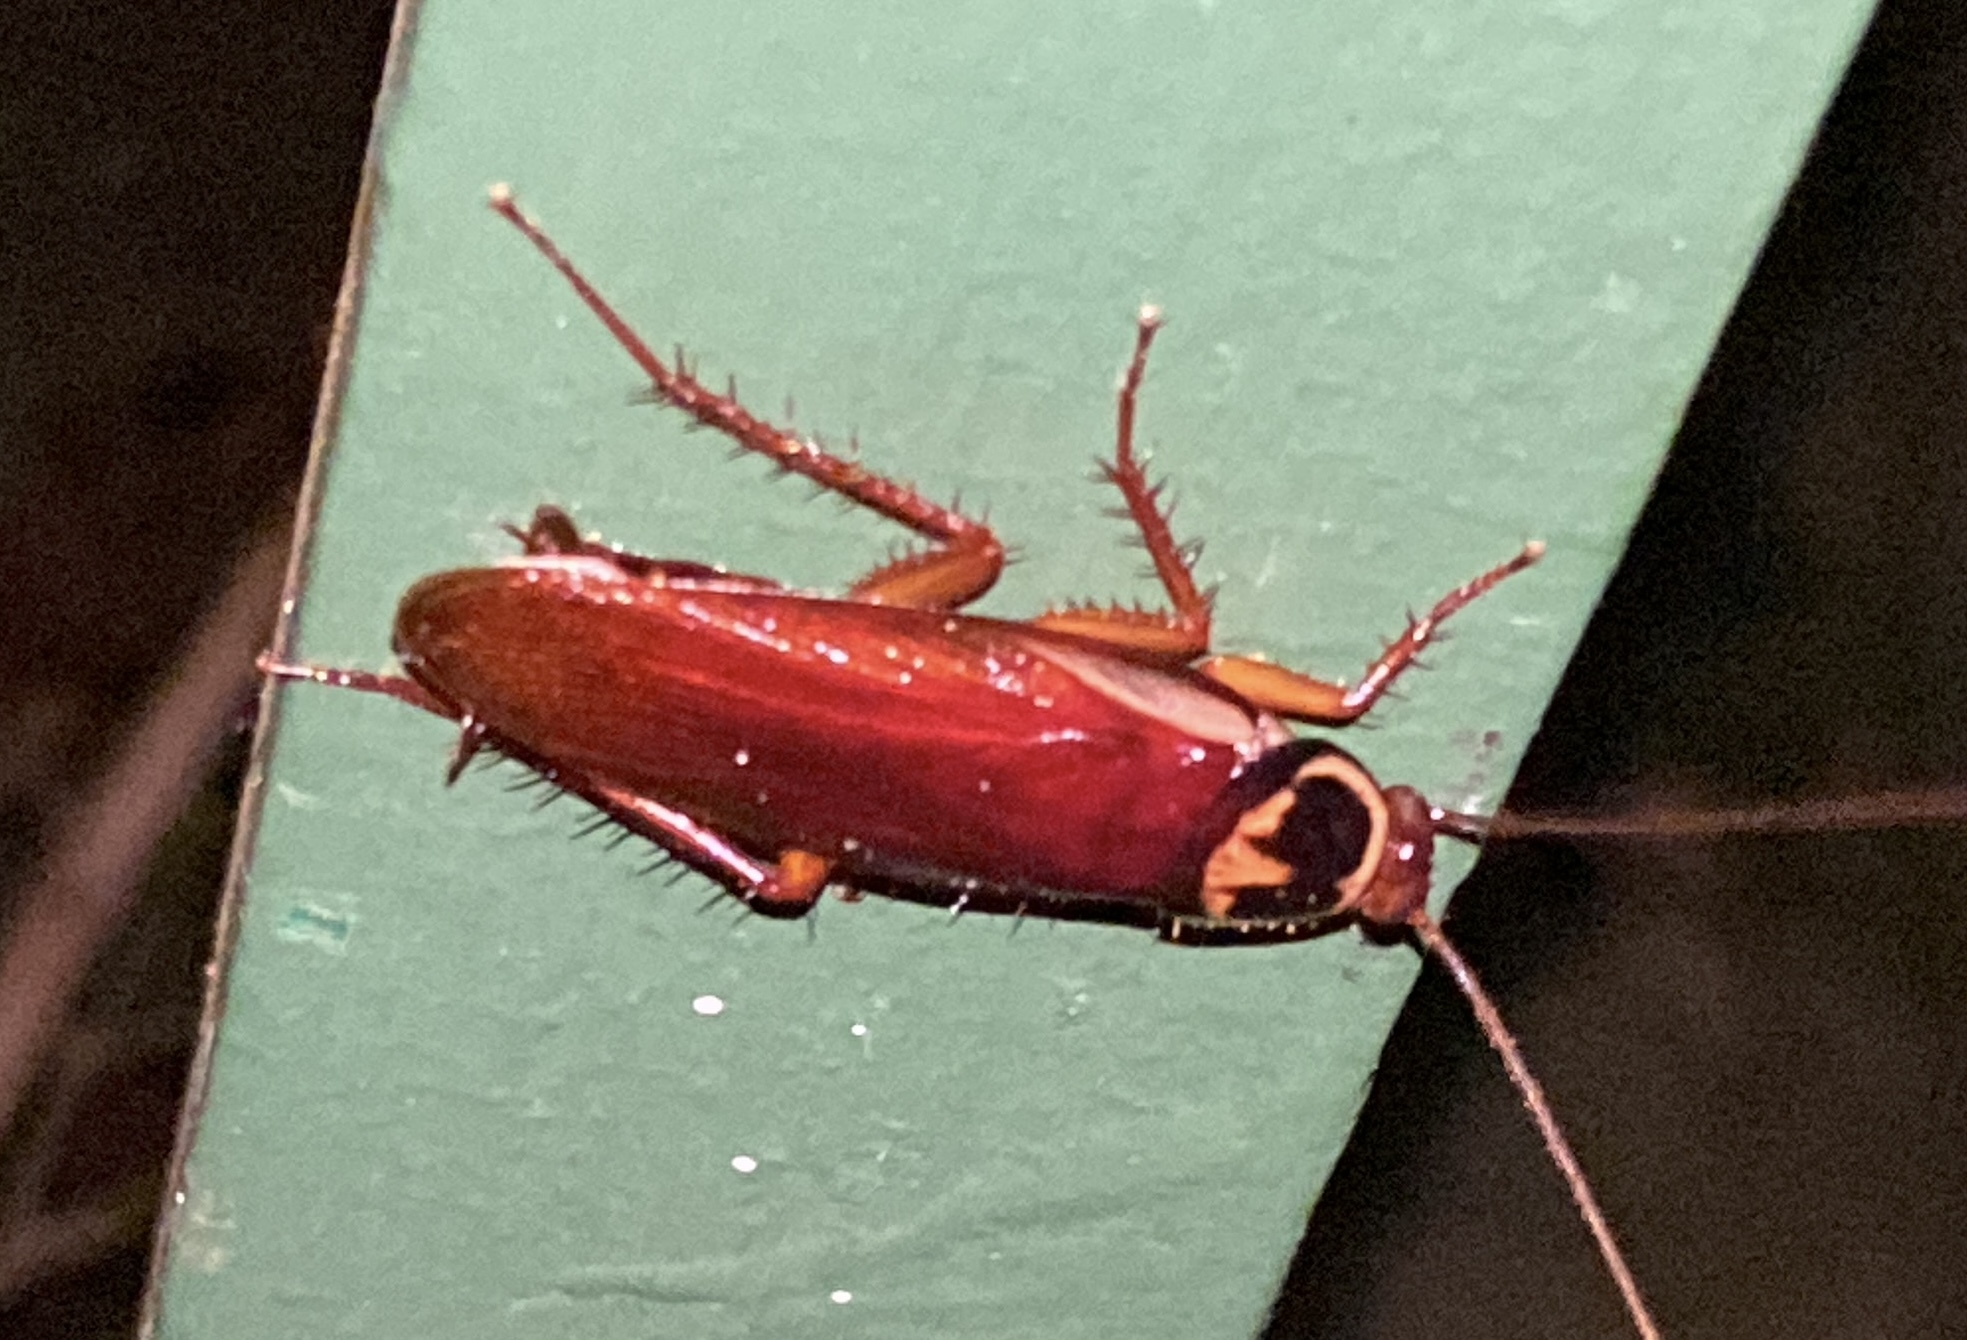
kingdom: Animalia
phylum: Arthropoda
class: Insecta
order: Blattodea
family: Blattidae
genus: Periplaneta
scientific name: Periplaneta australasiae
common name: Australian cockroach
